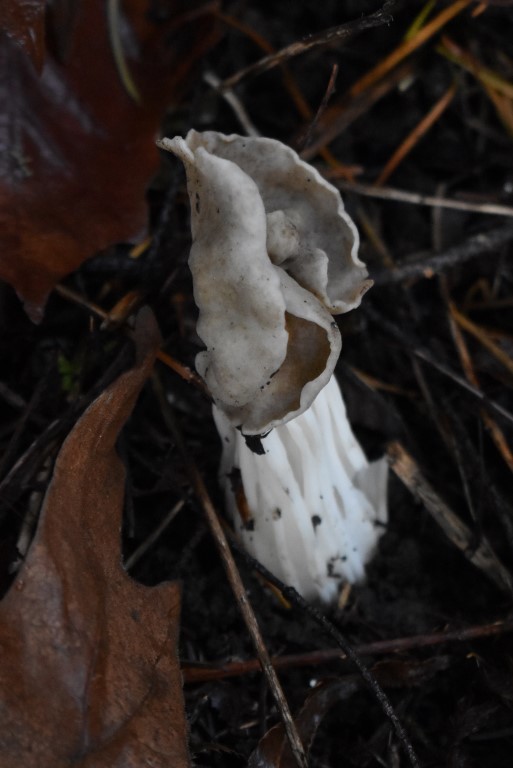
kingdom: Fungi
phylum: Ascomycota
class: Pezizomycetes
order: Pezizales
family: Helvellaceae
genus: Helvella
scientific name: Helvella maculata
